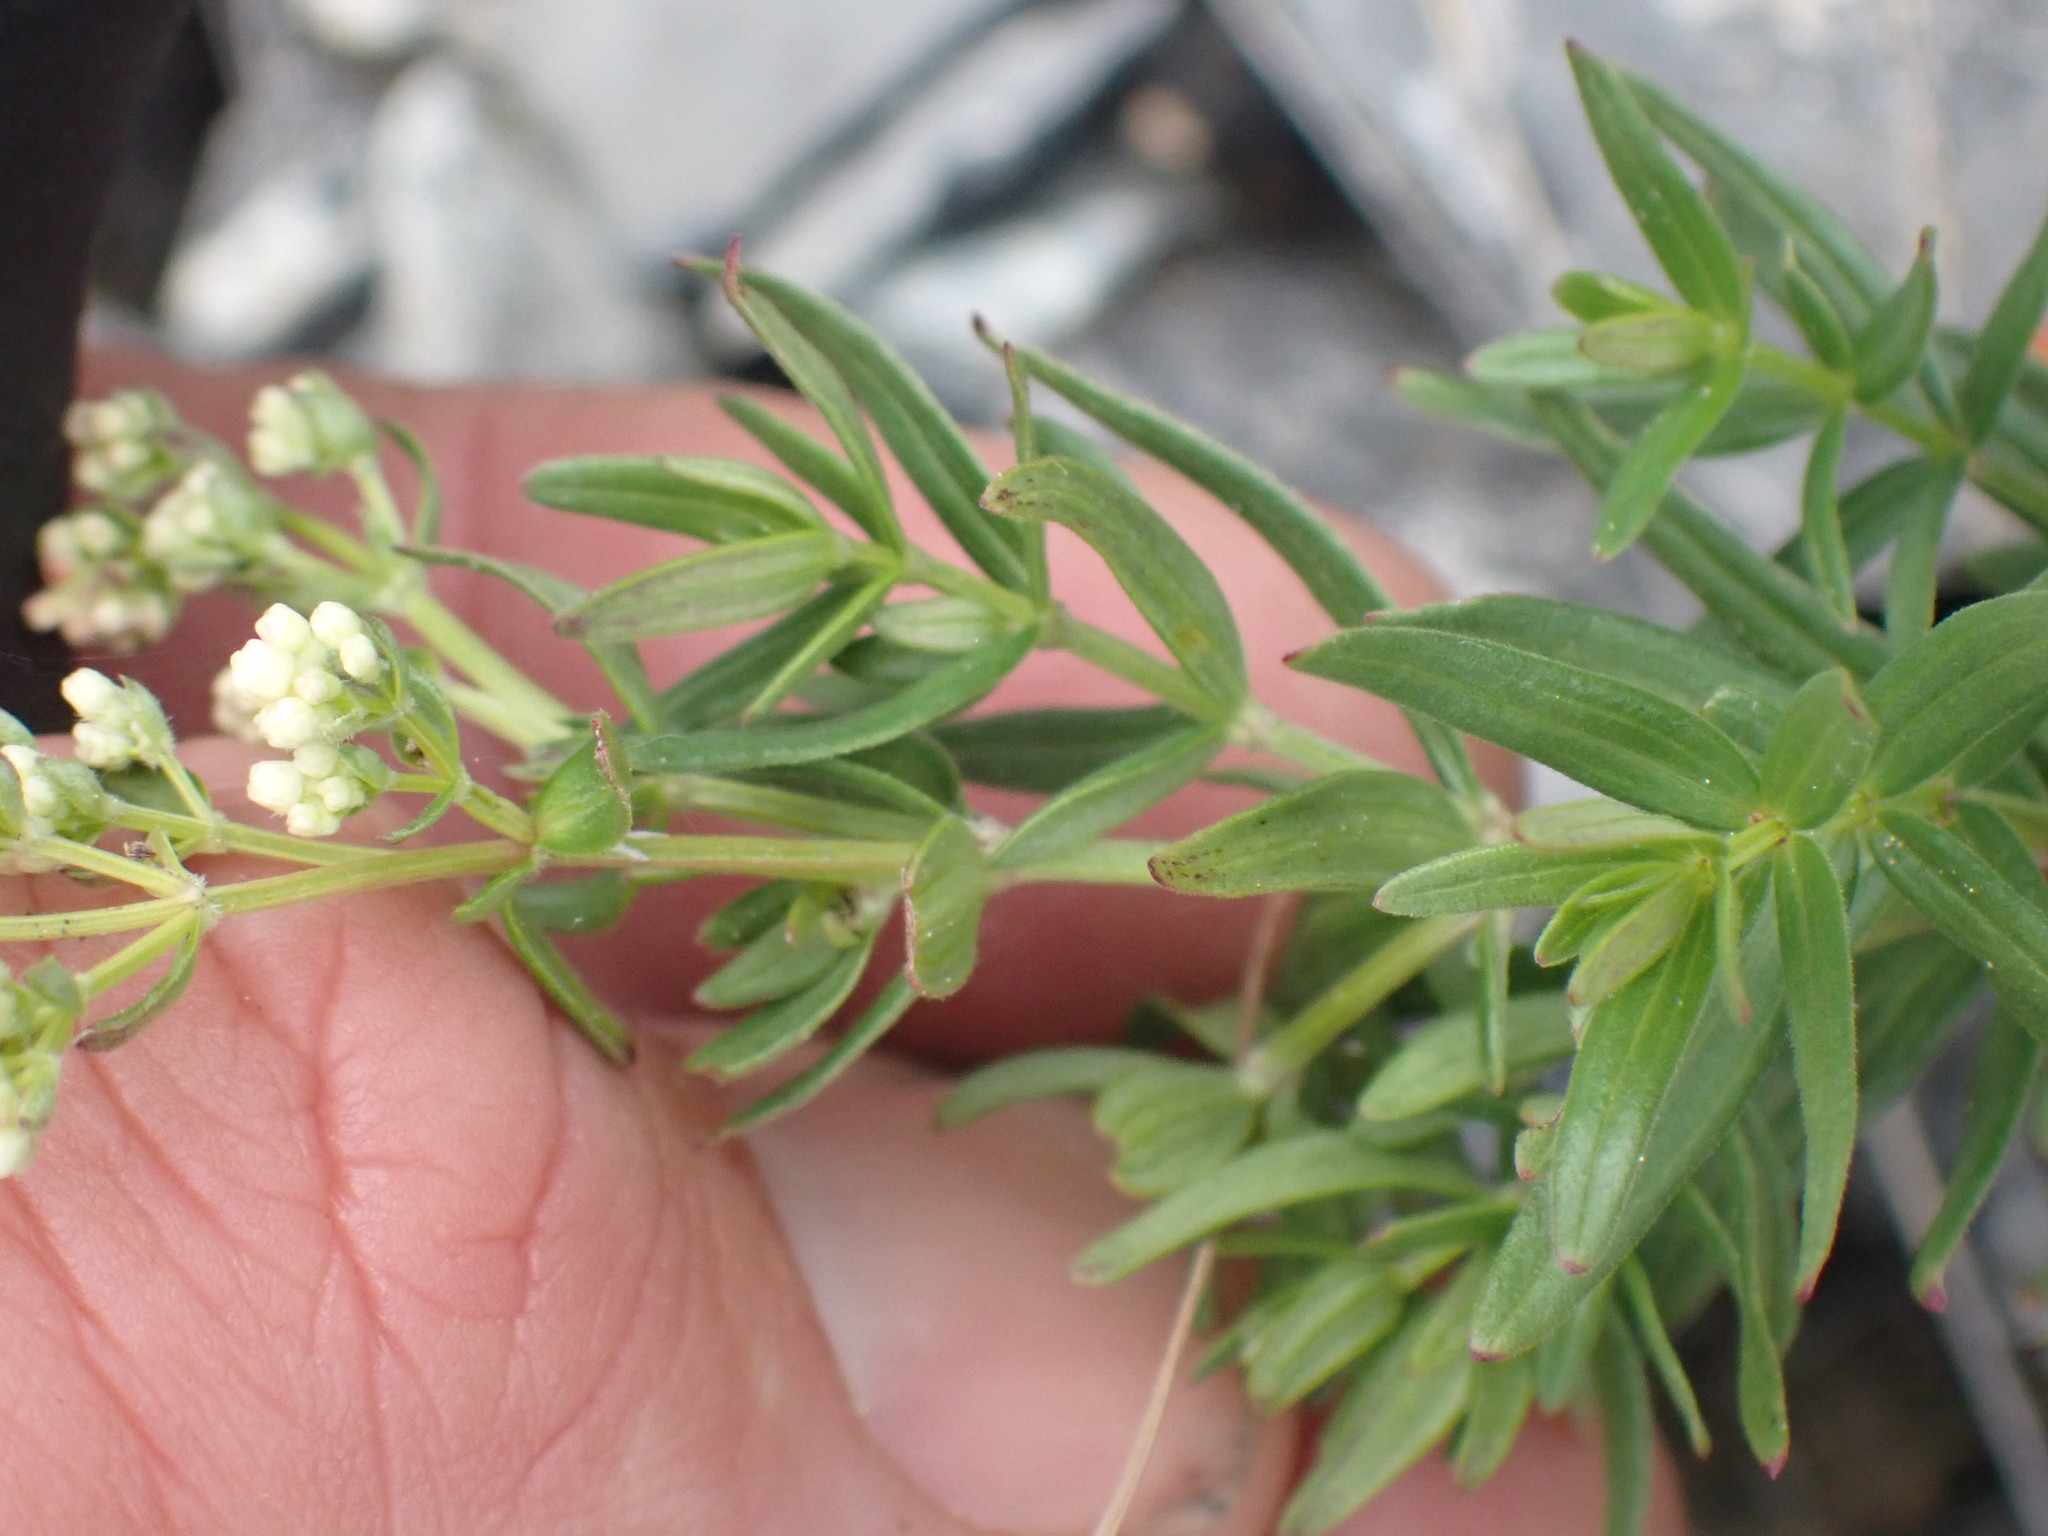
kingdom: Plantae
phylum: Tracheophyta
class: Magnoliopsida
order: Gentianales
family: Rubiaceae
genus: Galium
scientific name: Galium boreale
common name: Northern bedstraw
